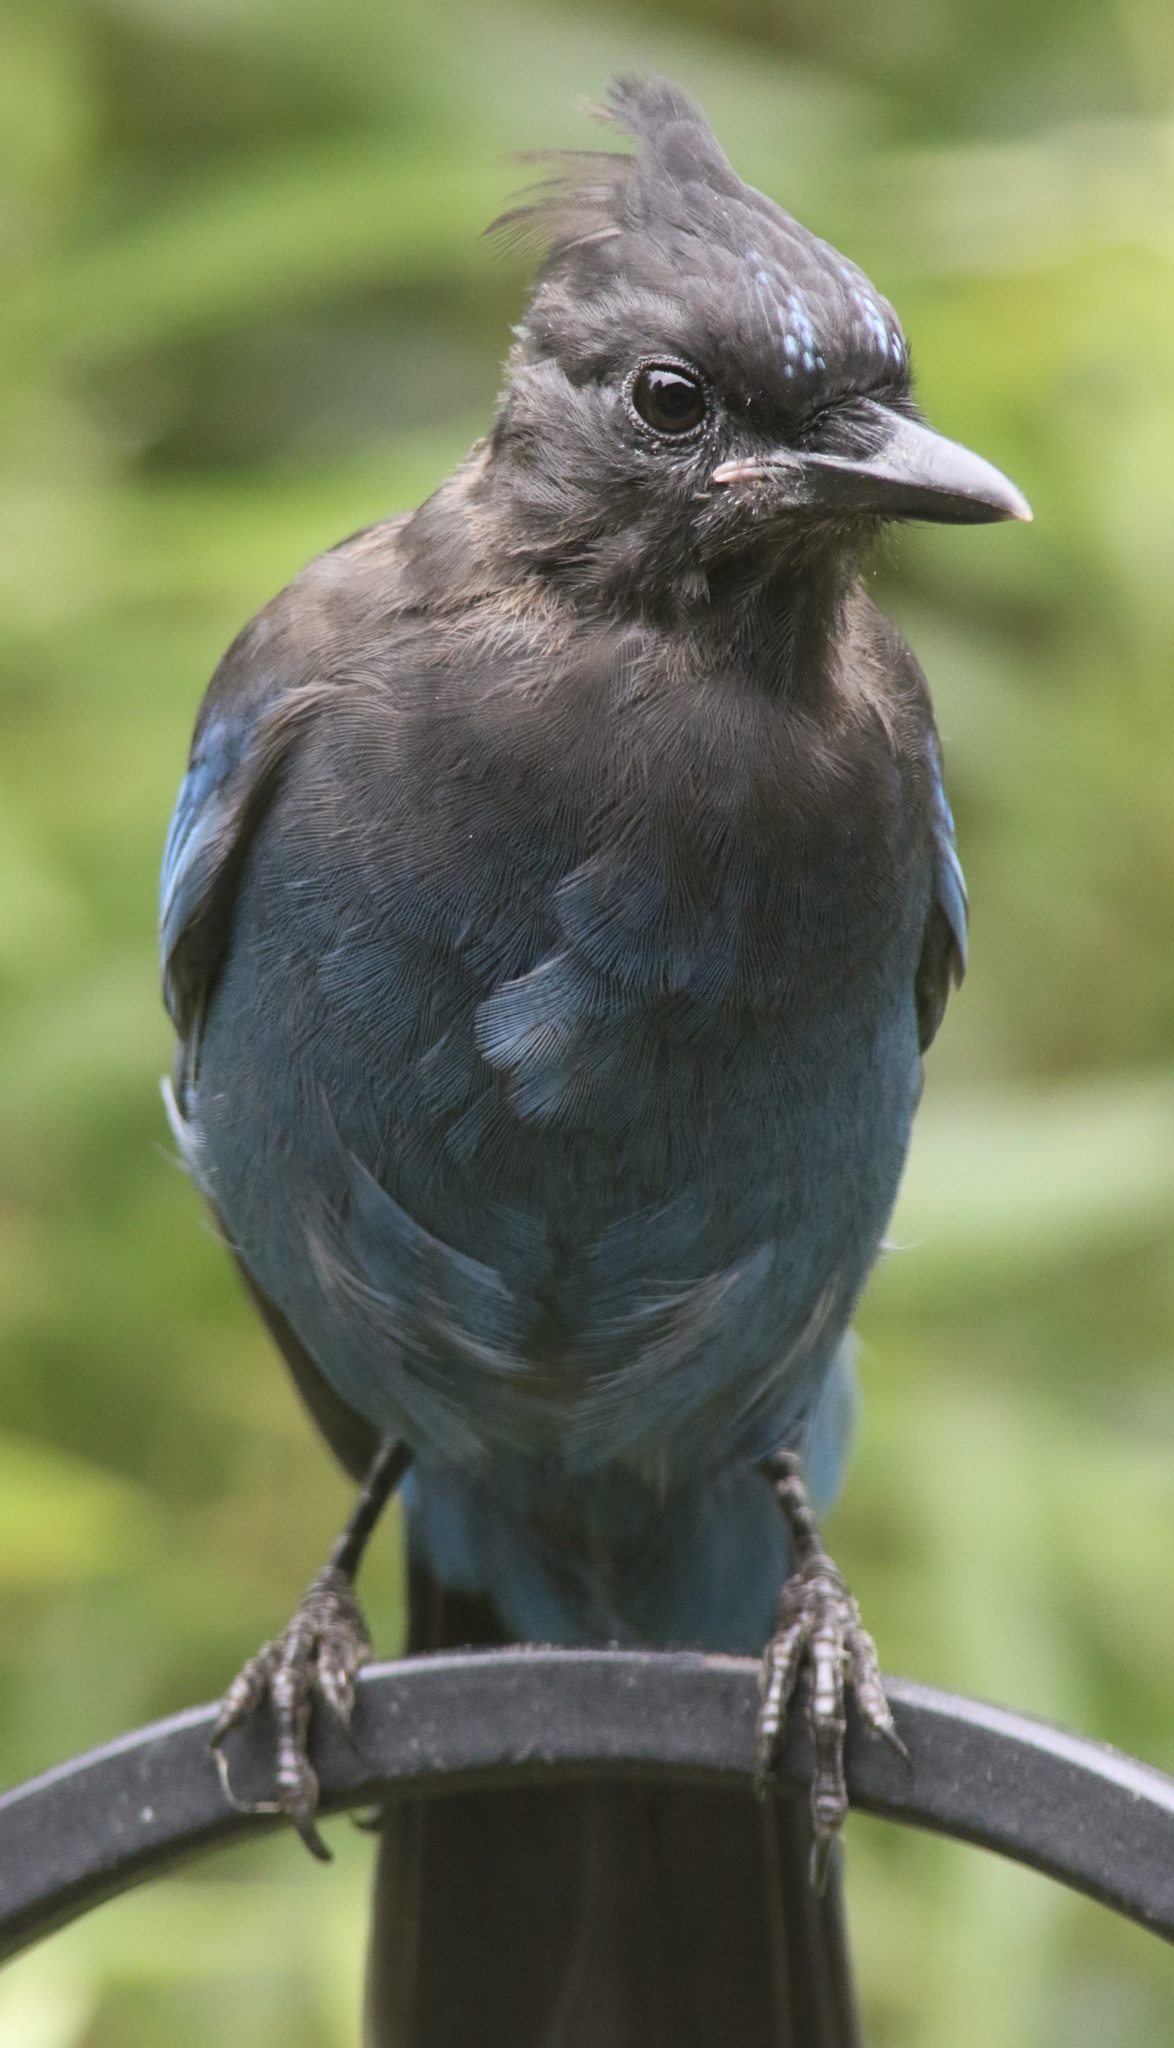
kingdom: Animalia
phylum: Chordata
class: Aves
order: Passeriformes
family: Corvidae
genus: Cyanocitta
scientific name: Cyanocitta stelleri
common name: Steller's jay
